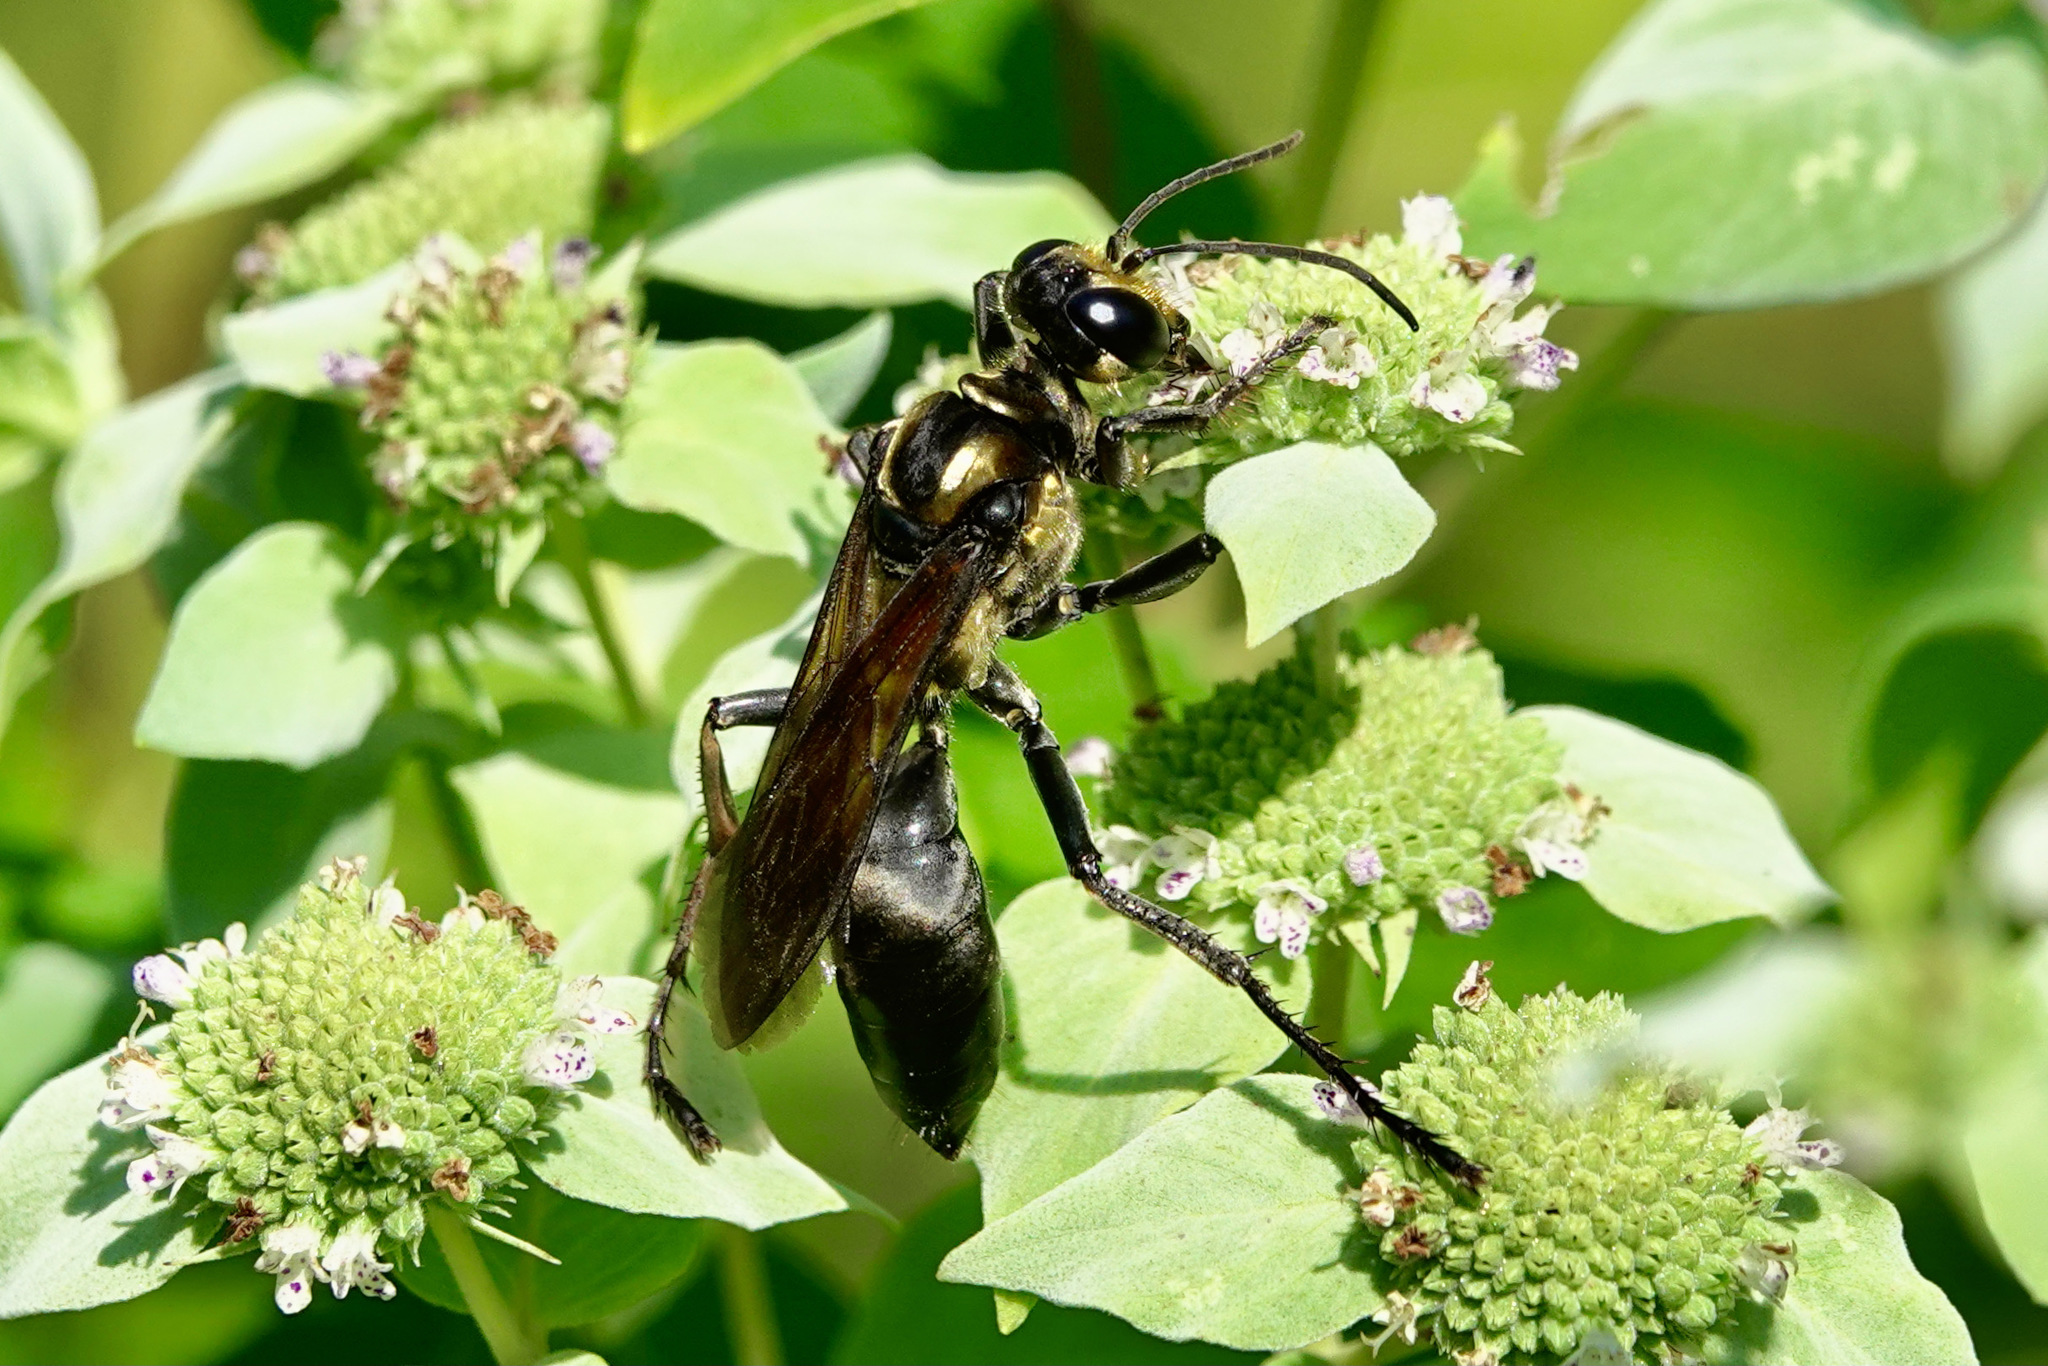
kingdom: Animalia
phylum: Arthropoda
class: Insecta
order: Hymenoptera
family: Sphecidae
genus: Sphex
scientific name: Sphex habenus
